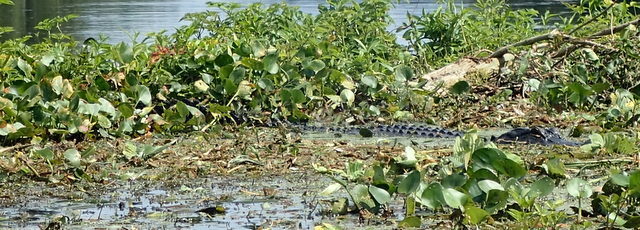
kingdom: Animalia
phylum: Chordata
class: Crocodylia
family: Alligatoridae
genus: Alligator
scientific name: Alligator mississippiensis
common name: American alligator
